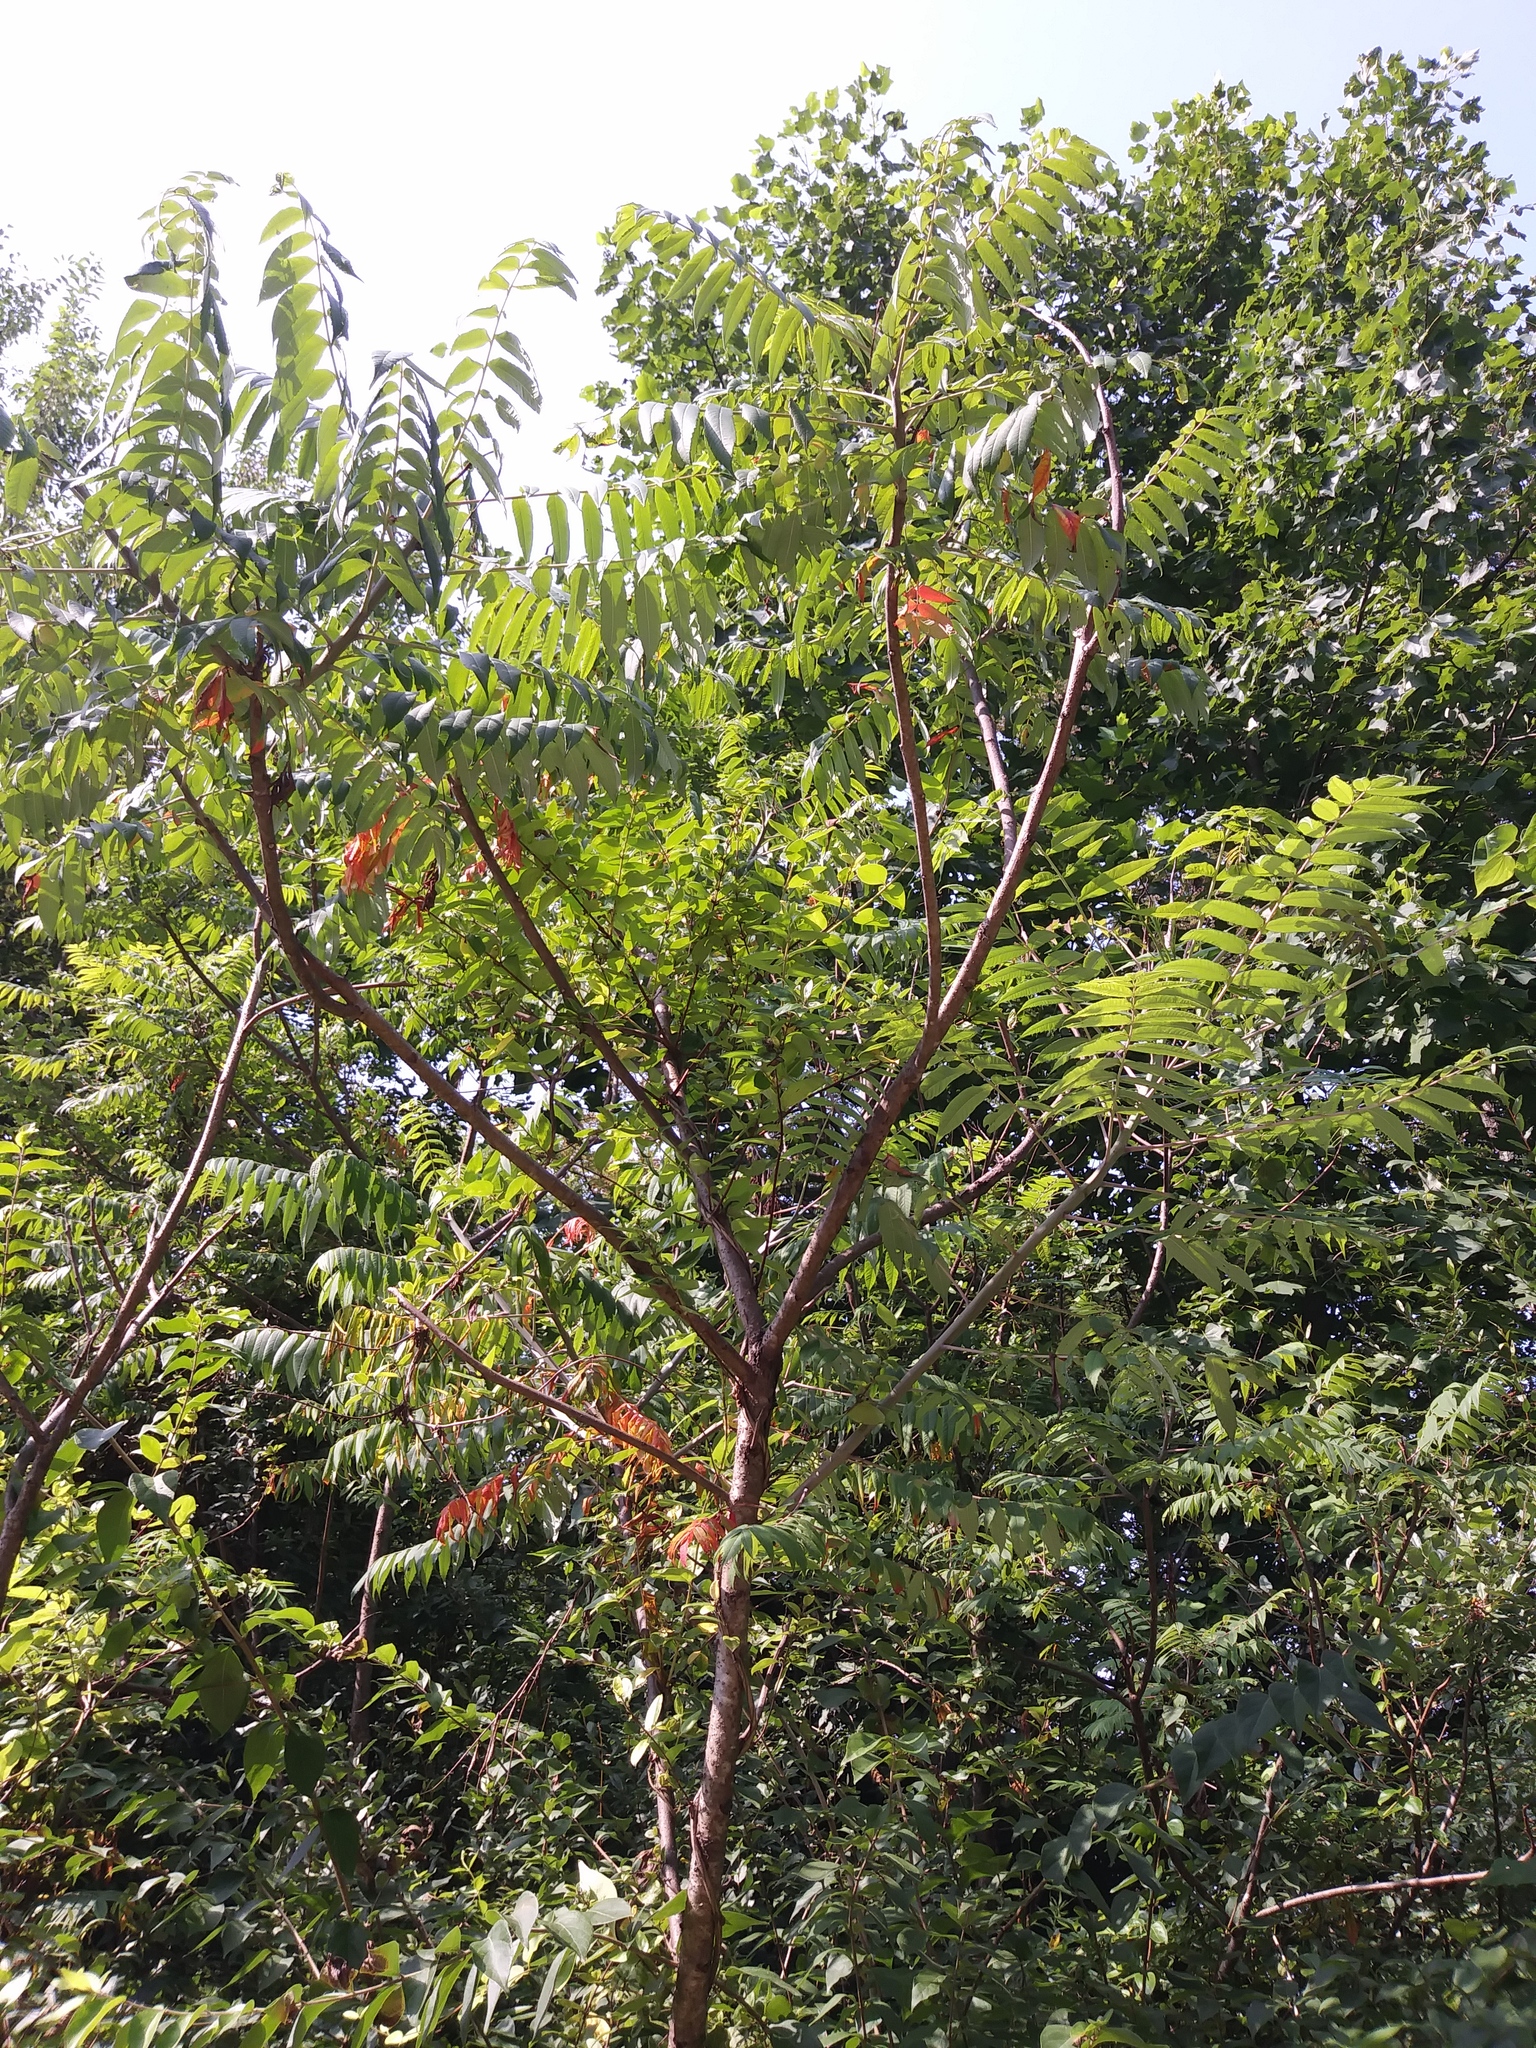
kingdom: Plantae
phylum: Tracheophyta
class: Magnoliopsida
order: Sapindales
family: Anacardiaceae
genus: Rhus
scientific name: Rhus glabra
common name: Scarlet sumac
